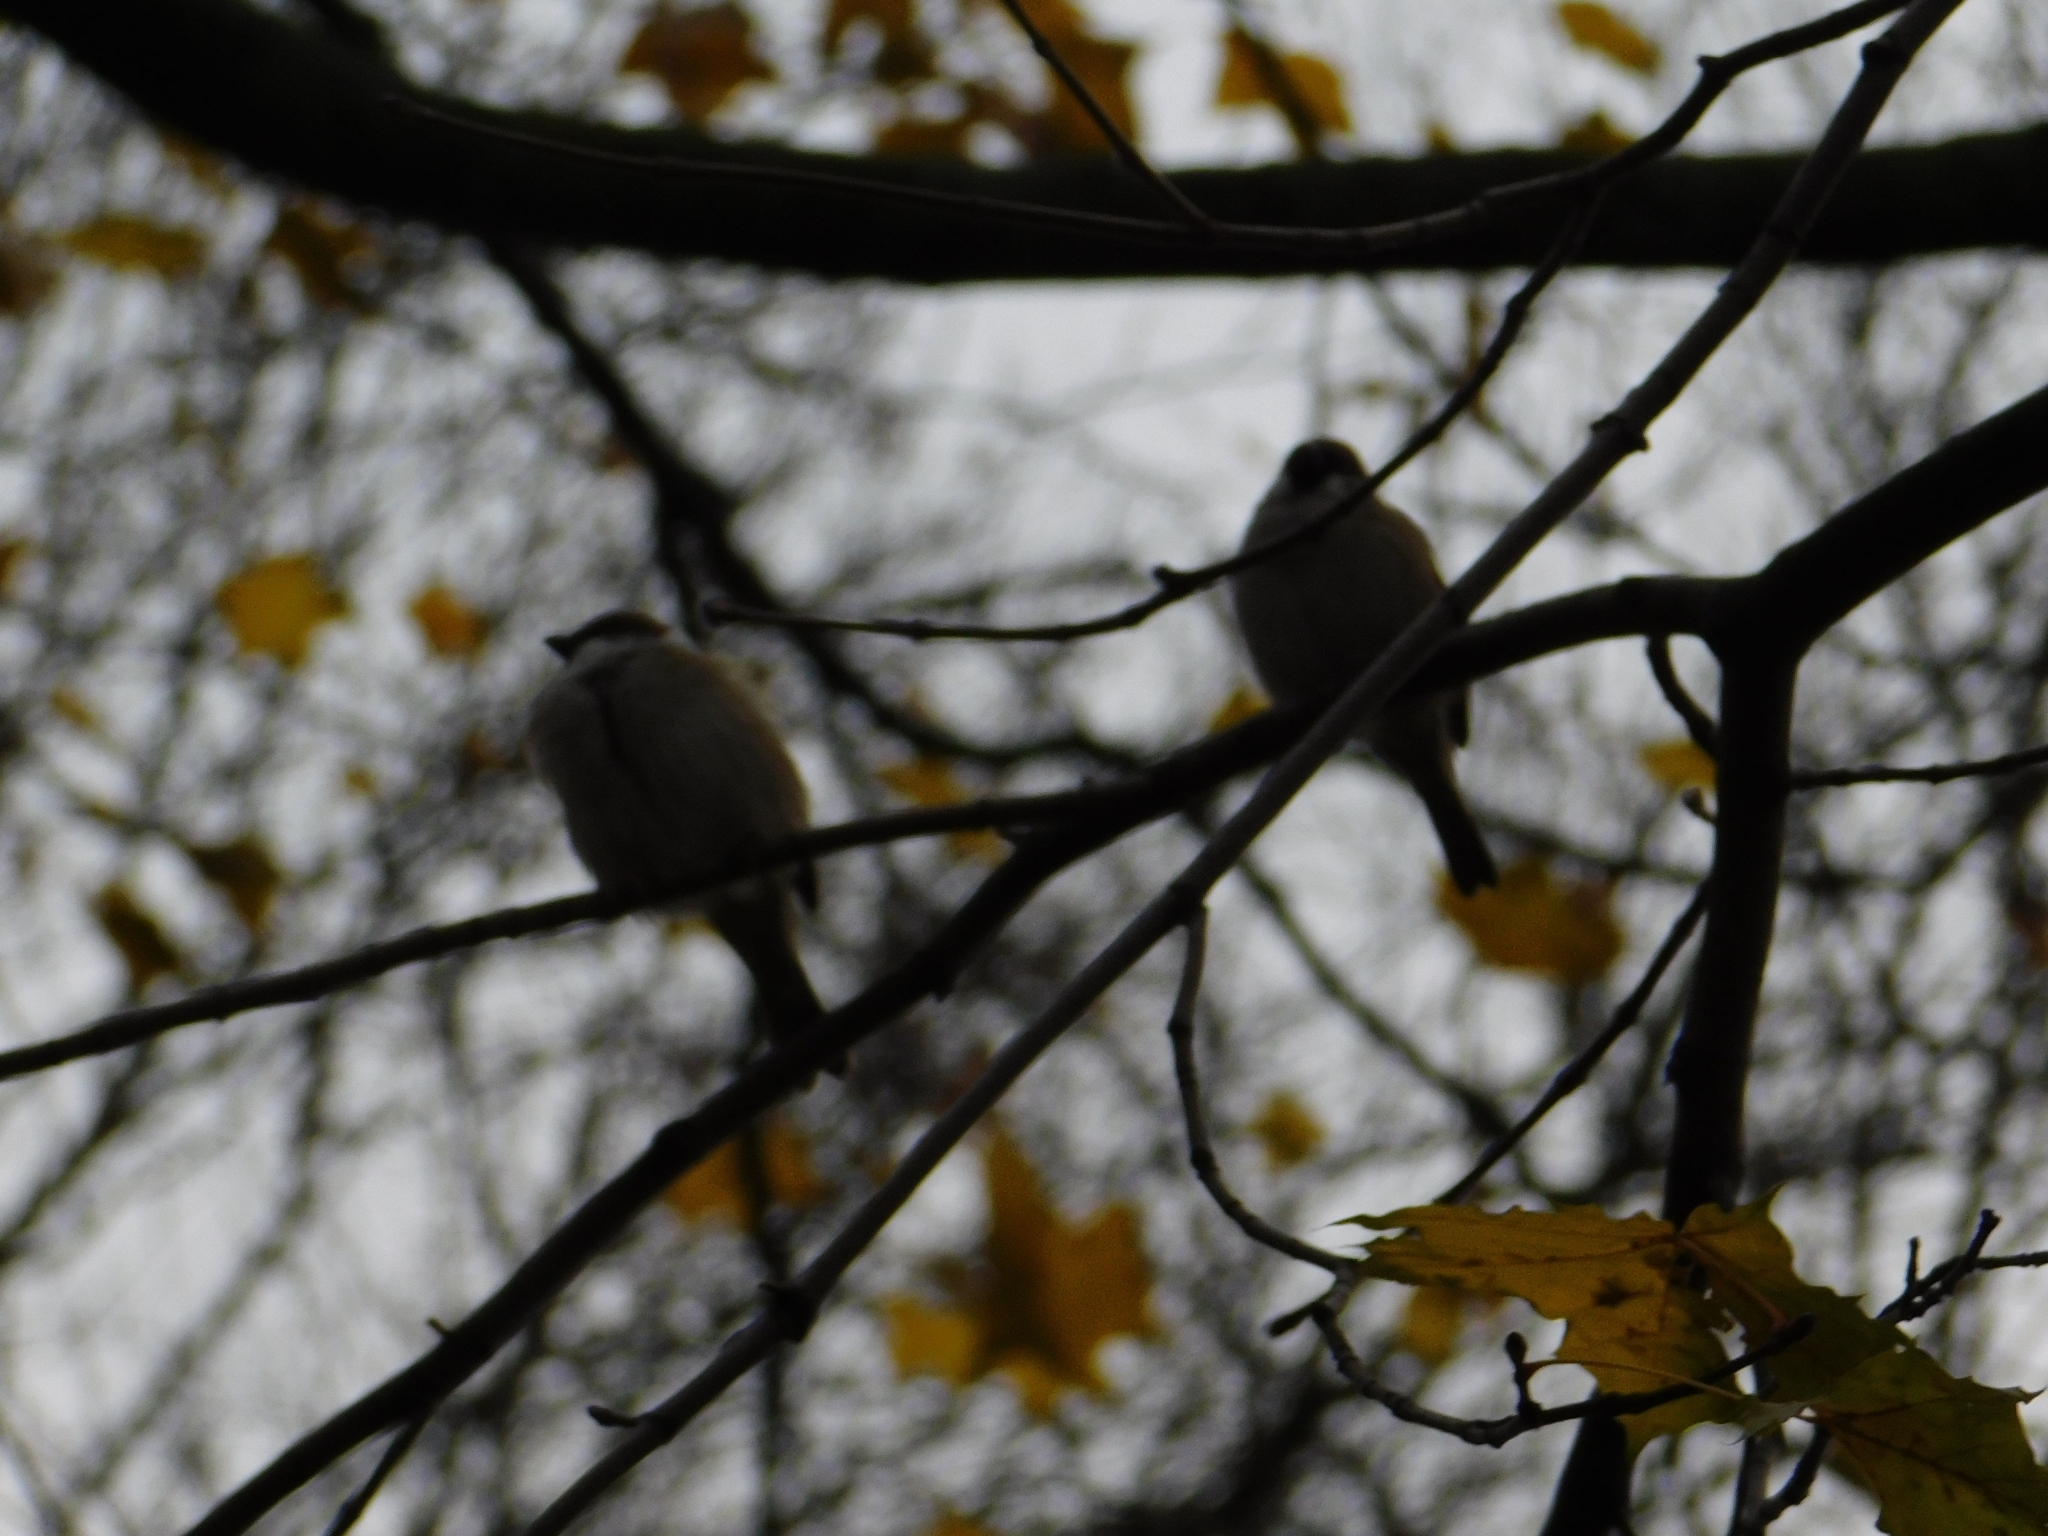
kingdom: Animalia
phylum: Chordata
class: Aves
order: Passeriformes
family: Paridae
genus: Parus
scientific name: Parus major
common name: Great tit
